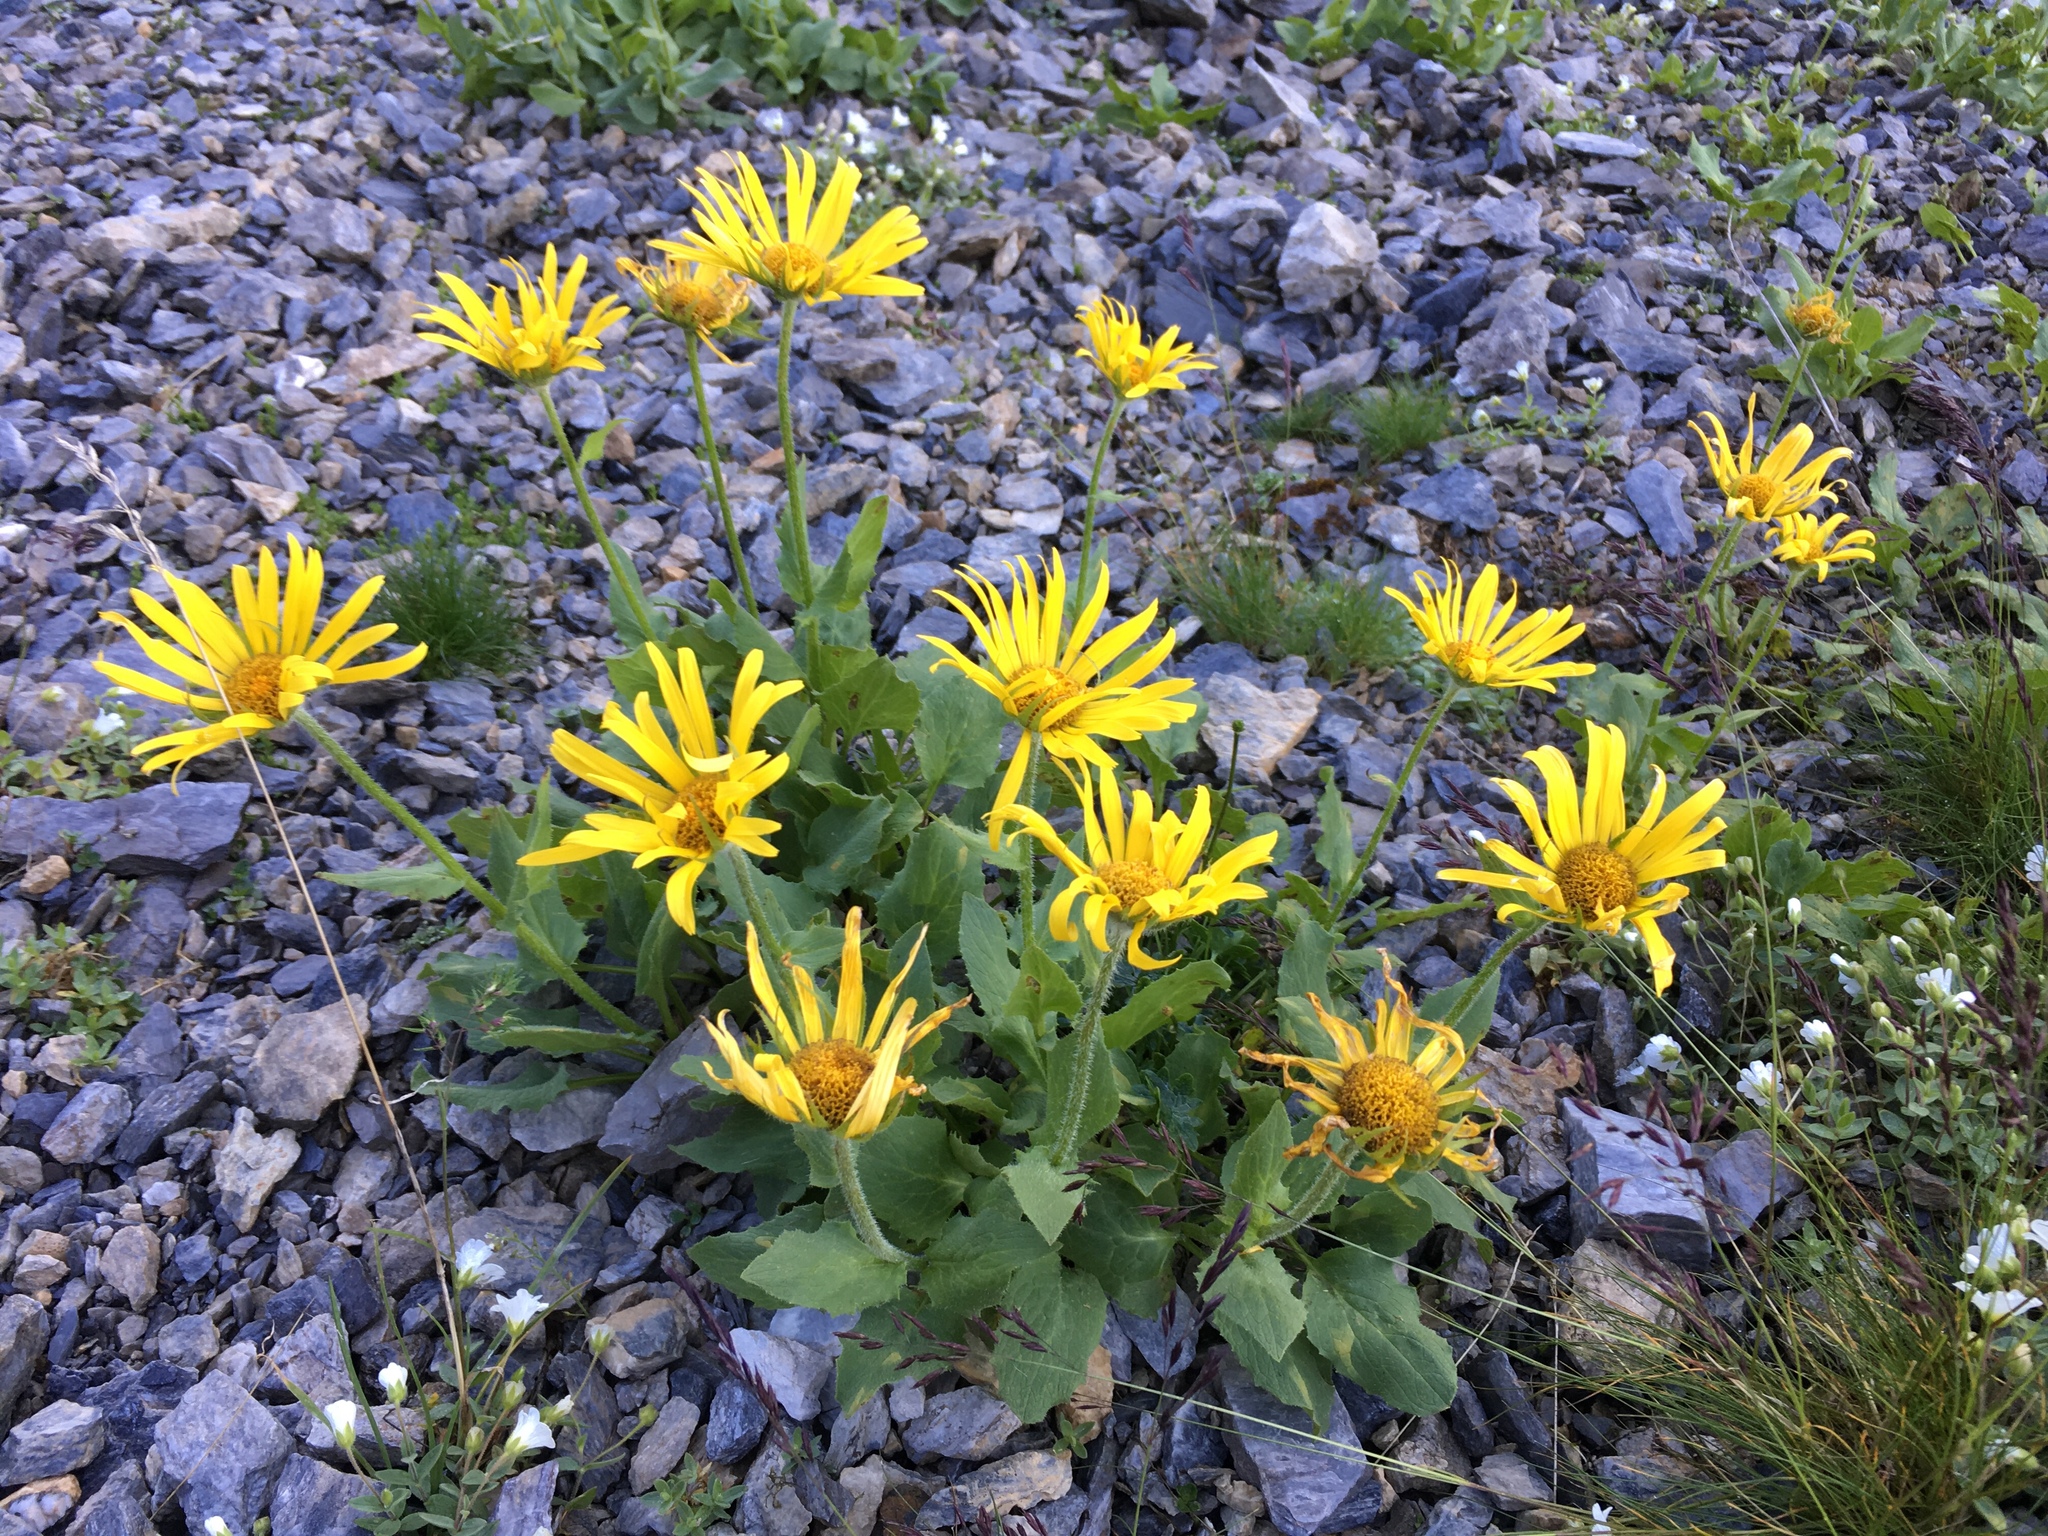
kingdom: Plantae
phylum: Tracheophyta
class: Magnoliopsida
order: Asterales
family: Asteraceae
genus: Doronicum
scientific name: Doronicum grandiflorum
